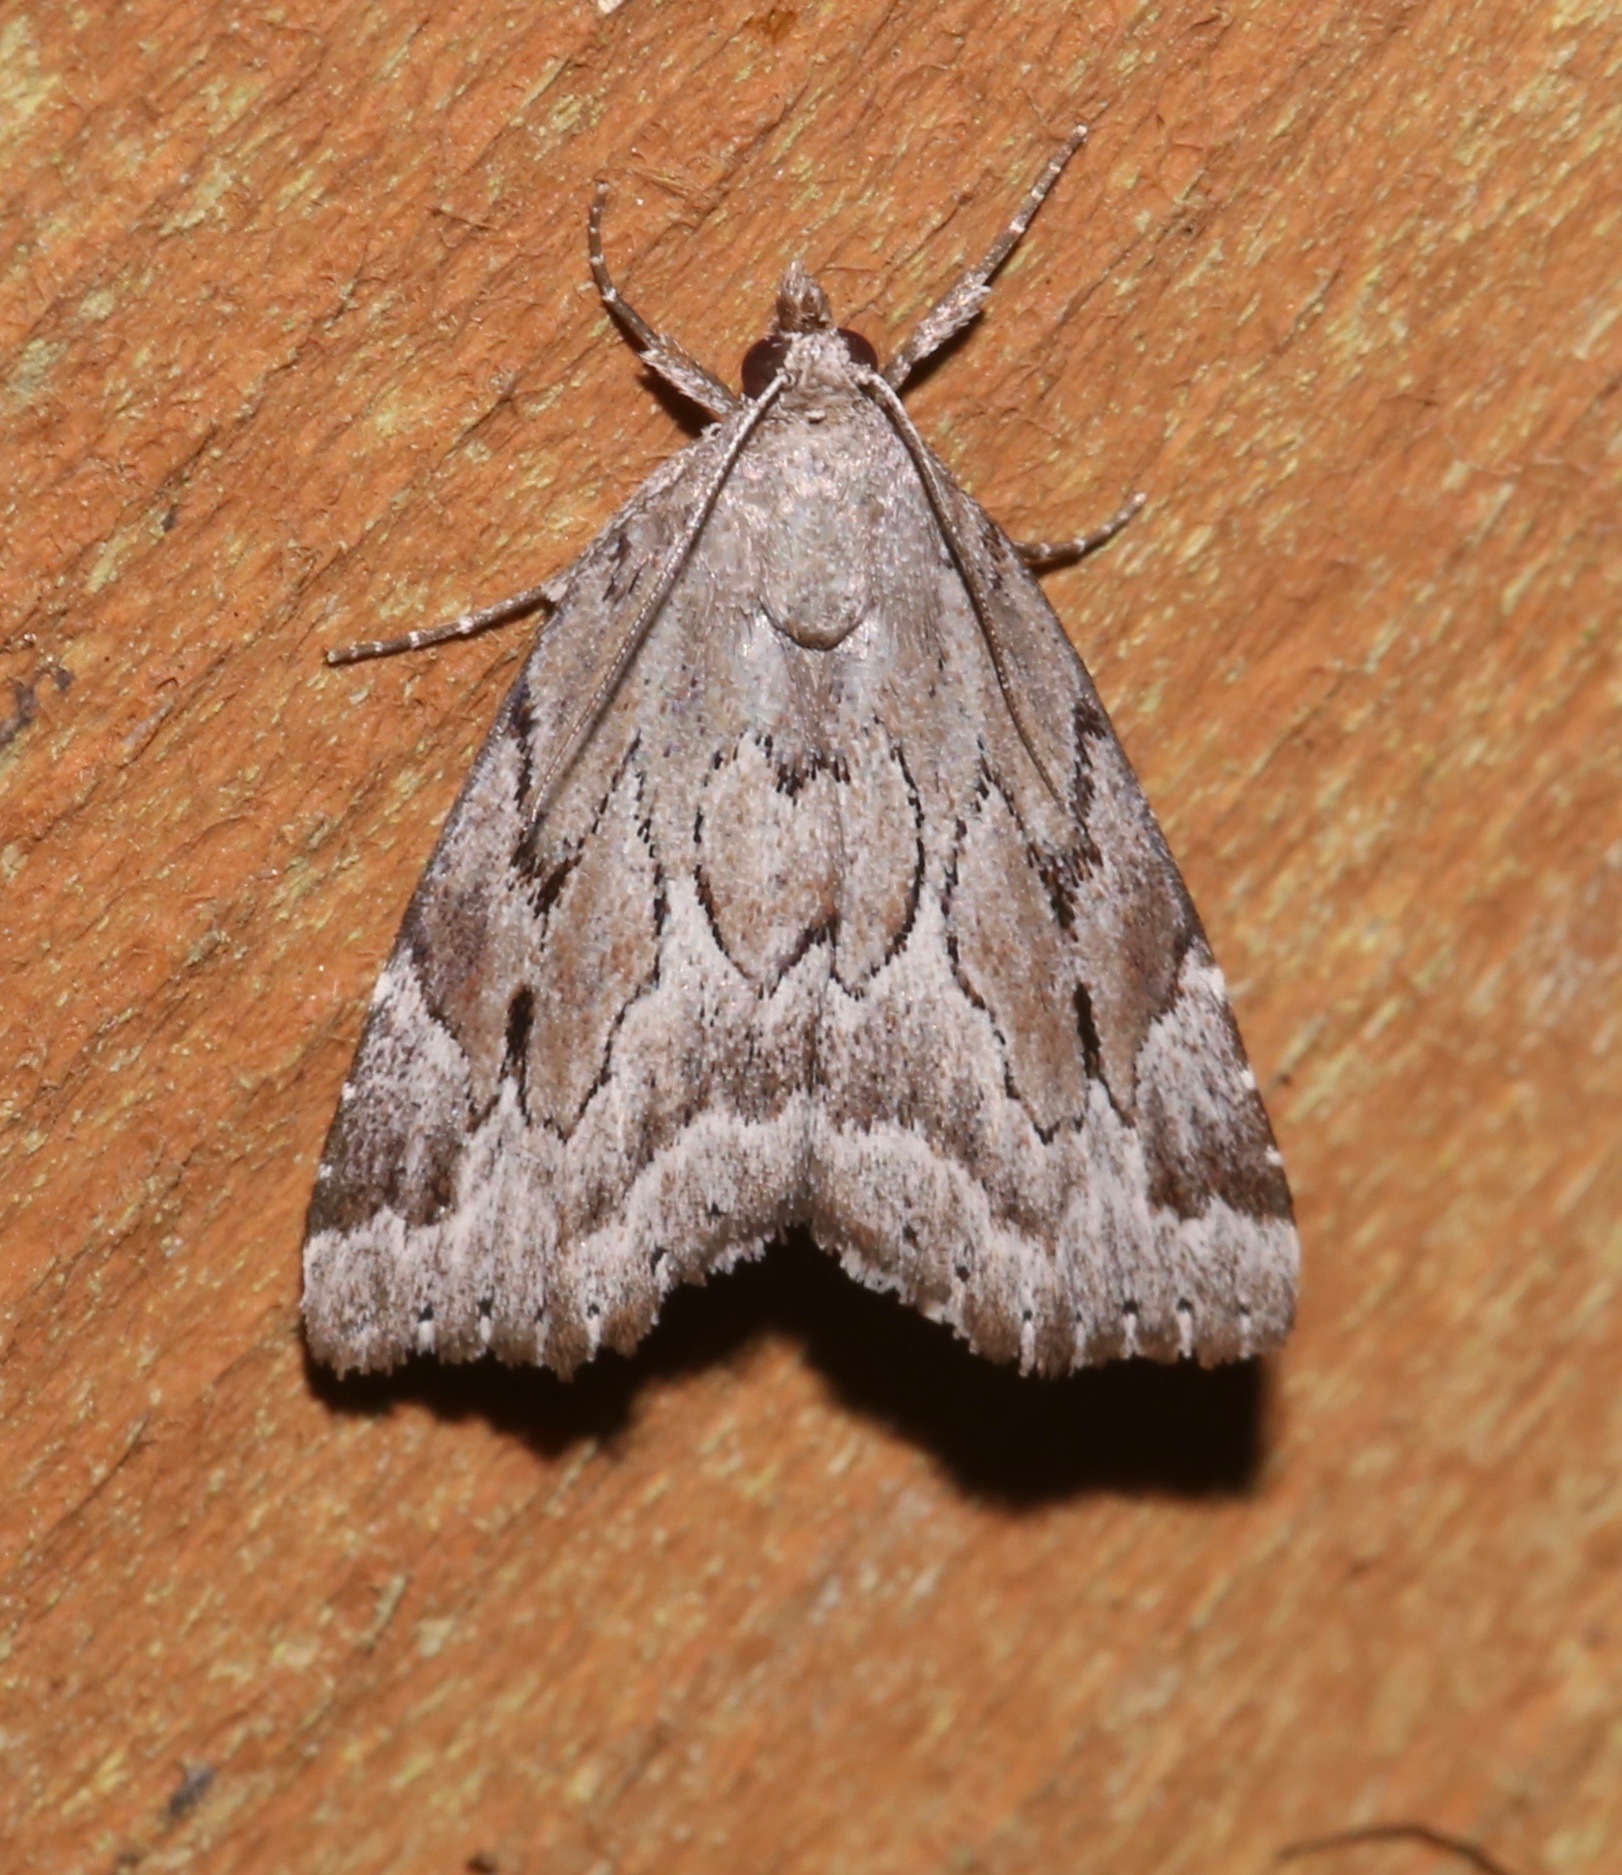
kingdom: Animalia
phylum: Arthropoda
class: Insecta
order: Lepidoptera
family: Erebidae
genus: Cutina
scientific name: Cutina albopunctella
